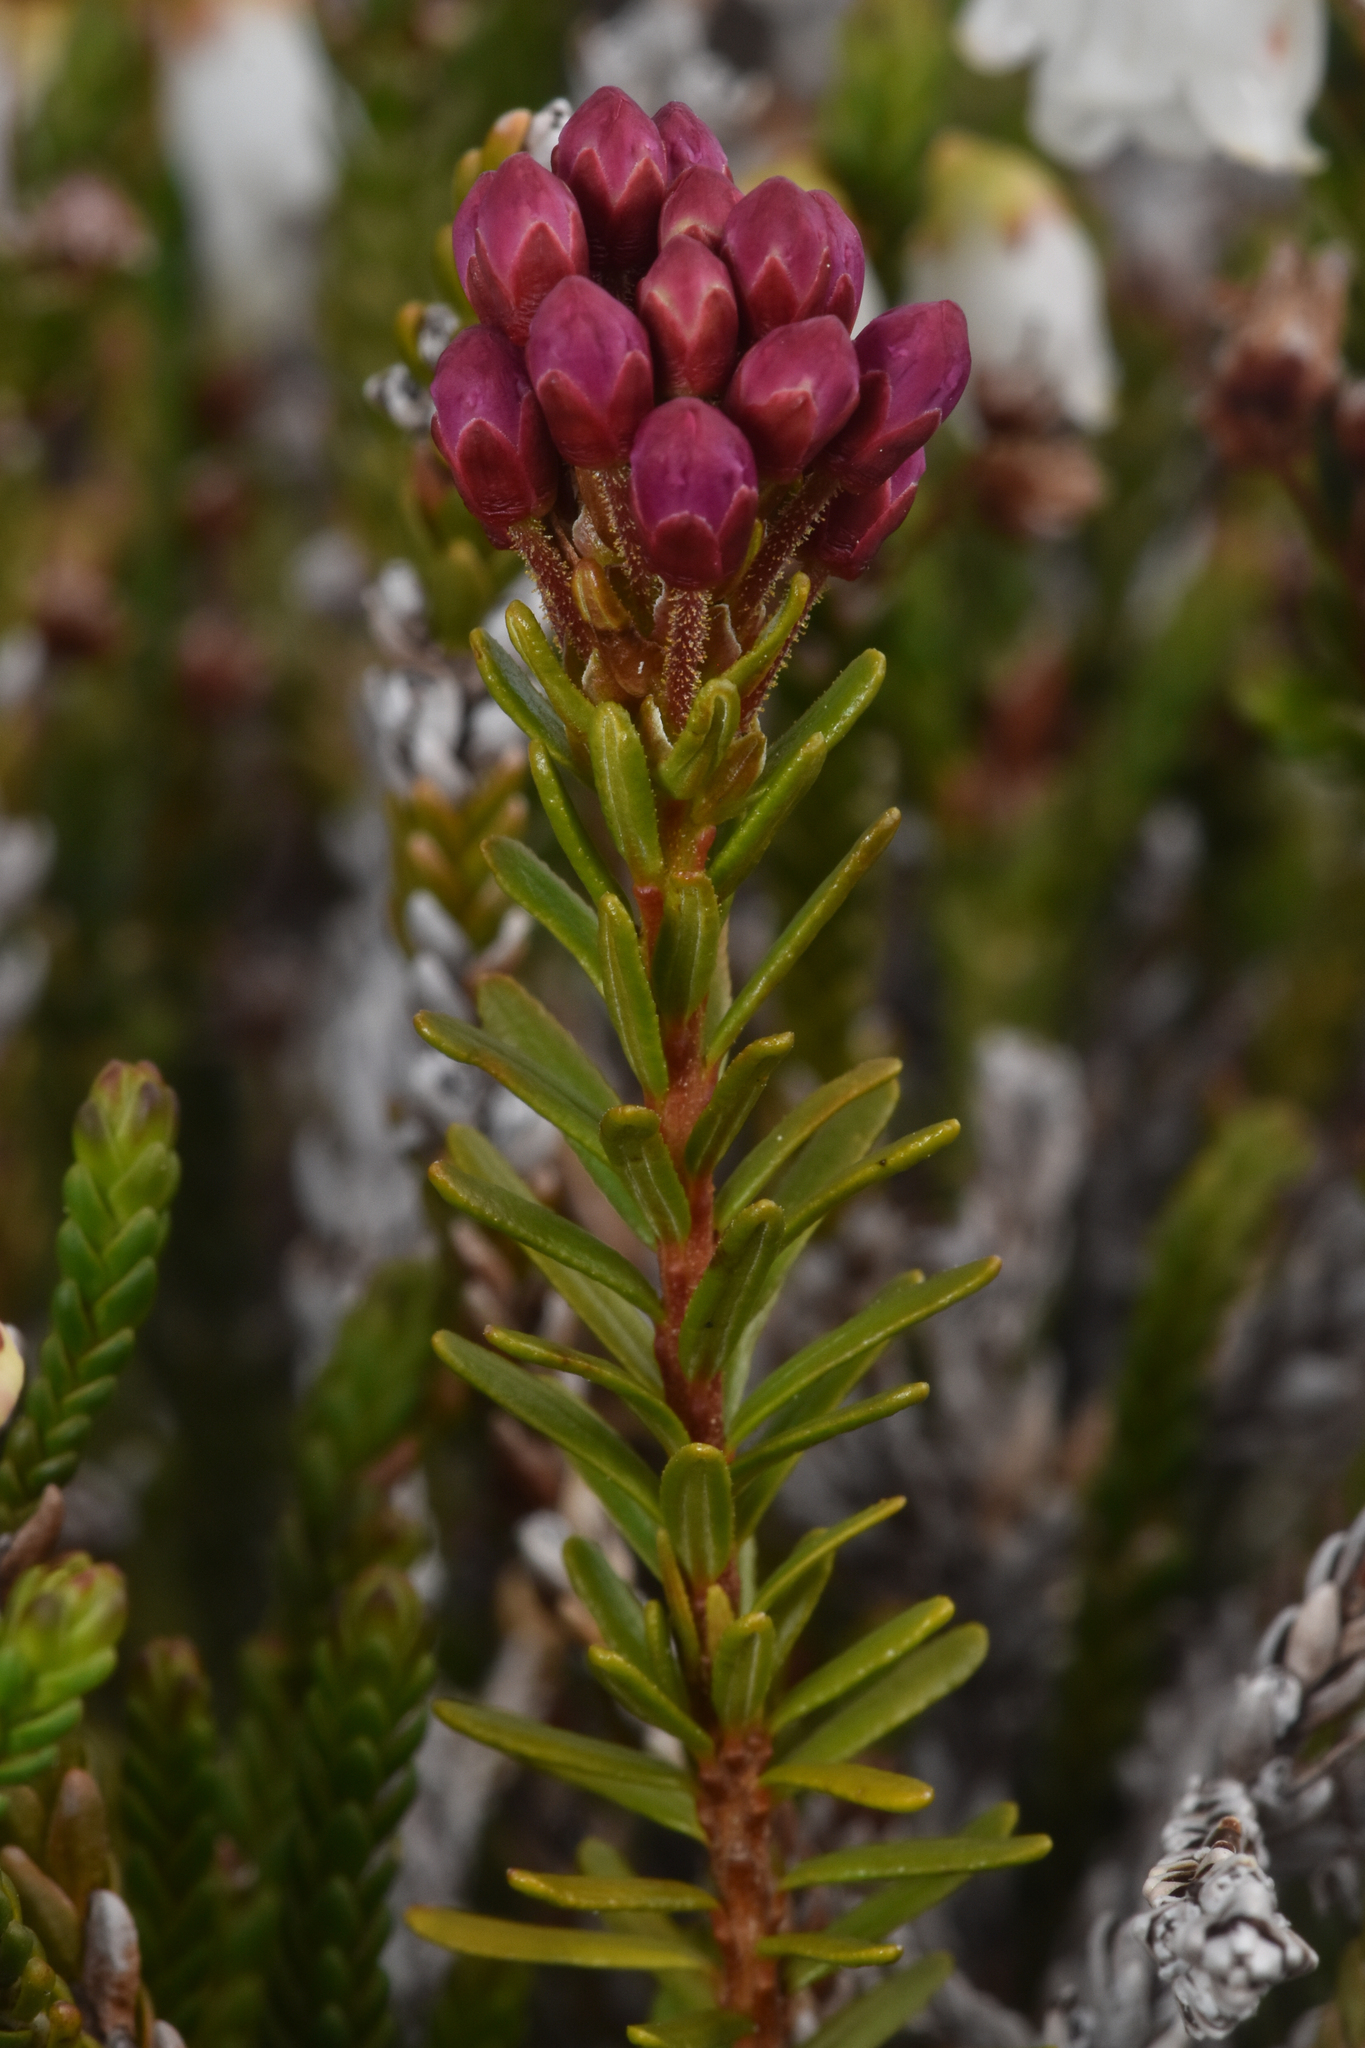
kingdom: Plantae
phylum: Tracheophyta
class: Magnoliopsida
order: Ericales
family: Ericaceae
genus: Phyllodoce
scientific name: Phyllodoce empetriformis
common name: Pink mountain heather
